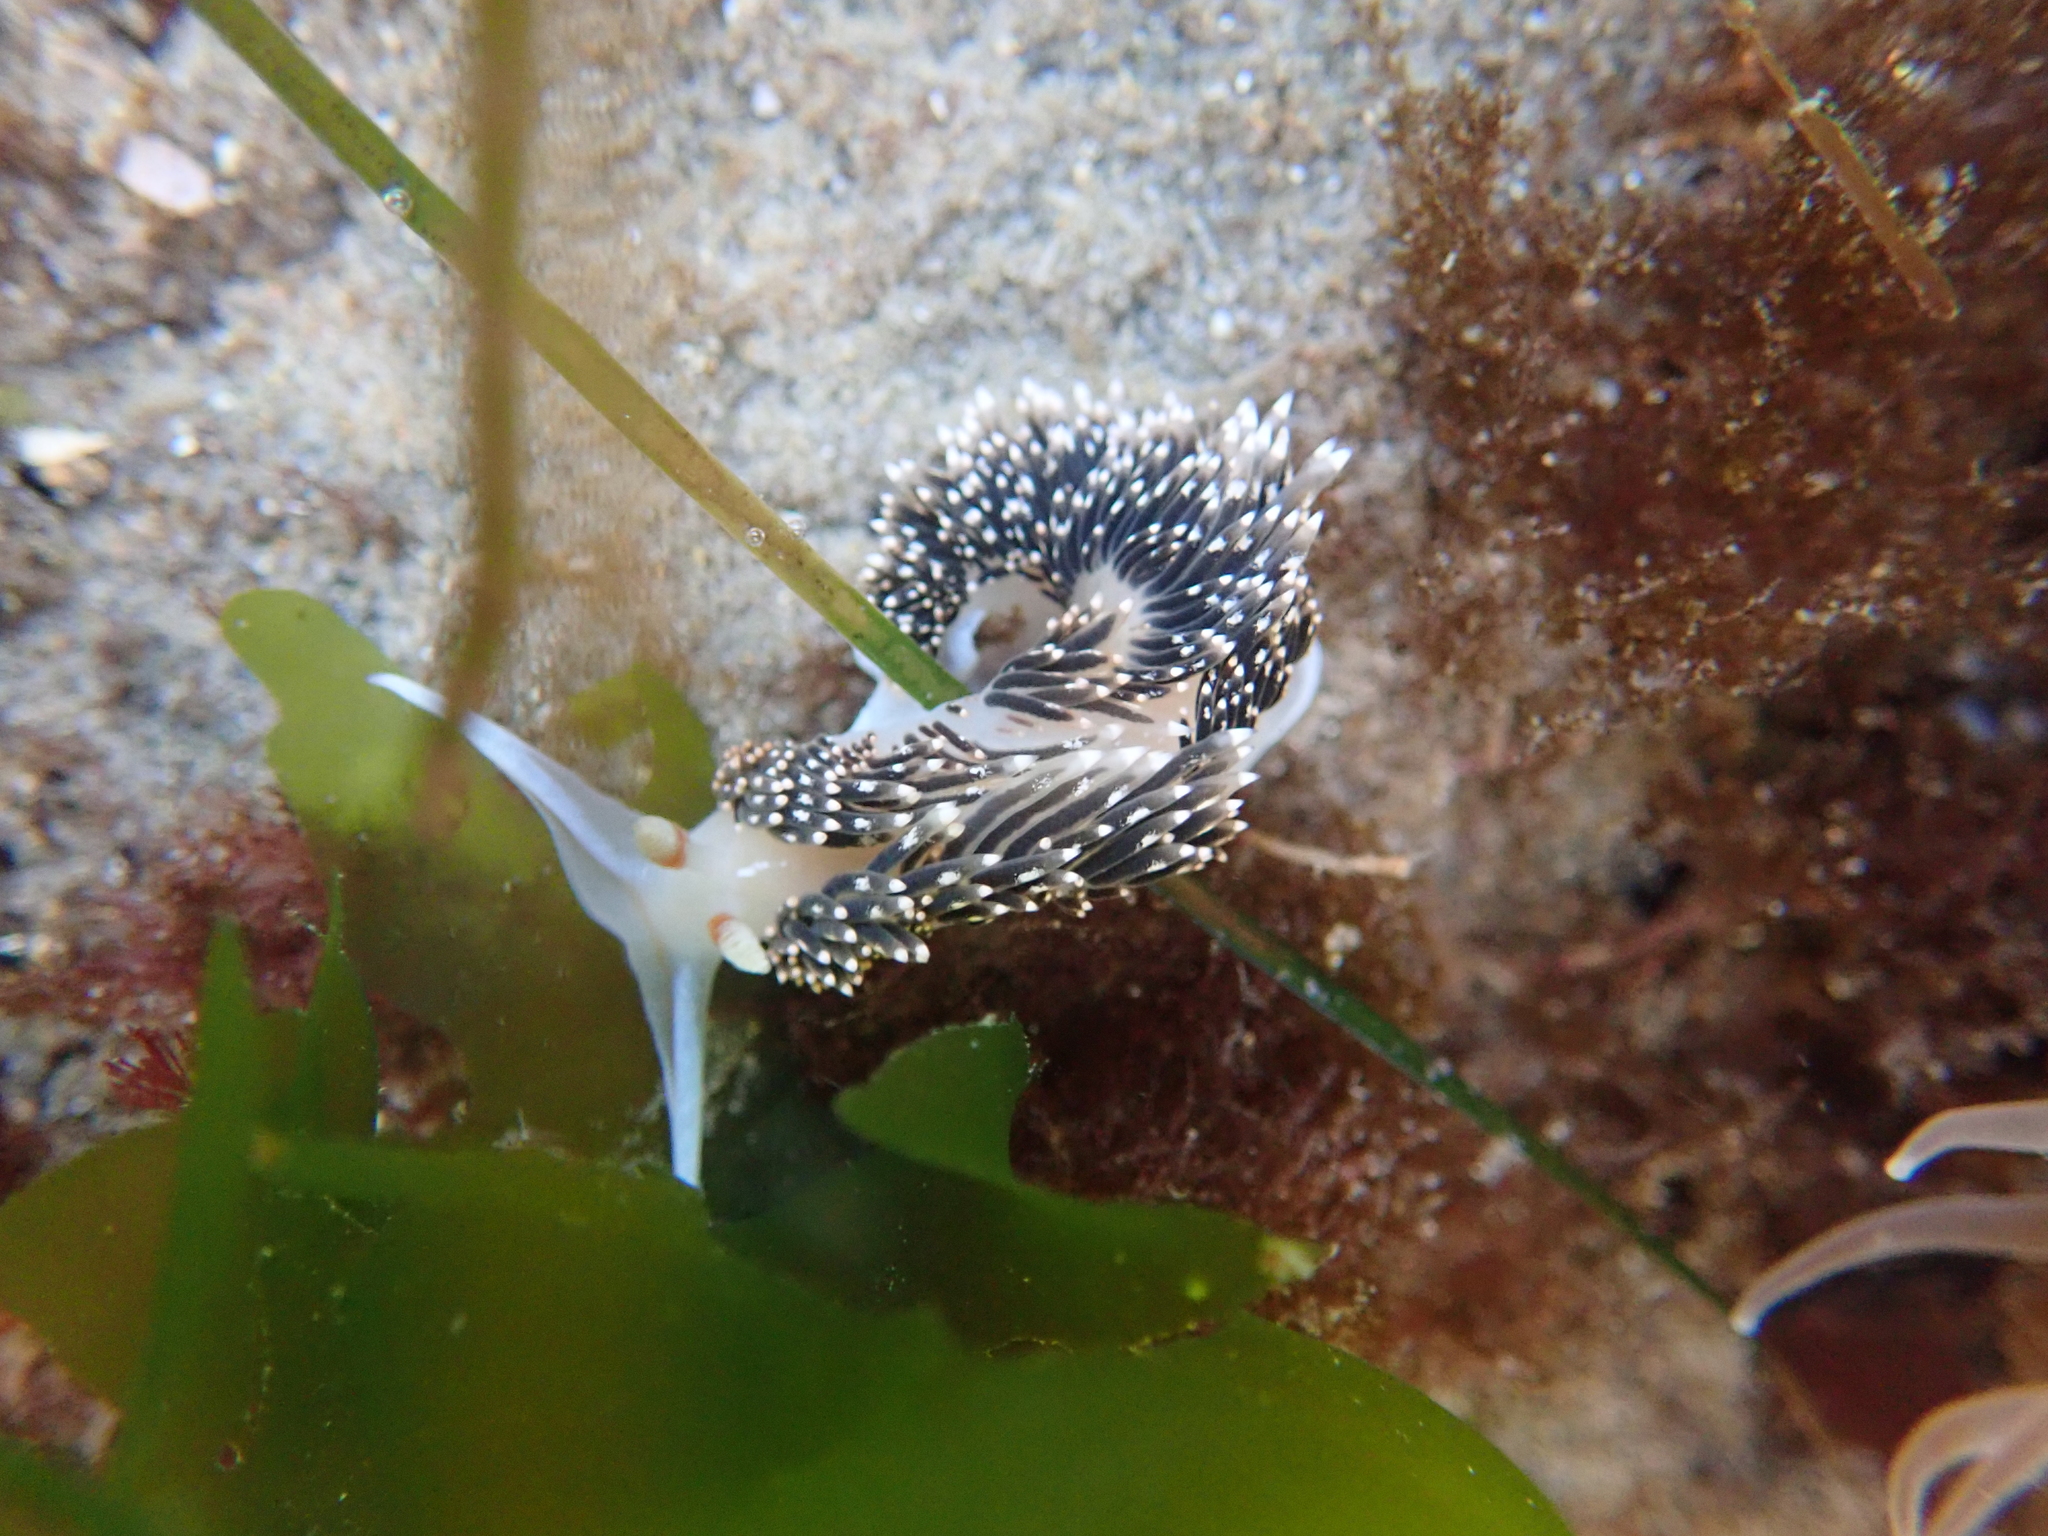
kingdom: Animalia
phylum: Mollusca
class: Gastropoda
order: Nudibranchia
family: Facelinidae
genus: Phidiana
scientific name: Phidiana hiltoni
